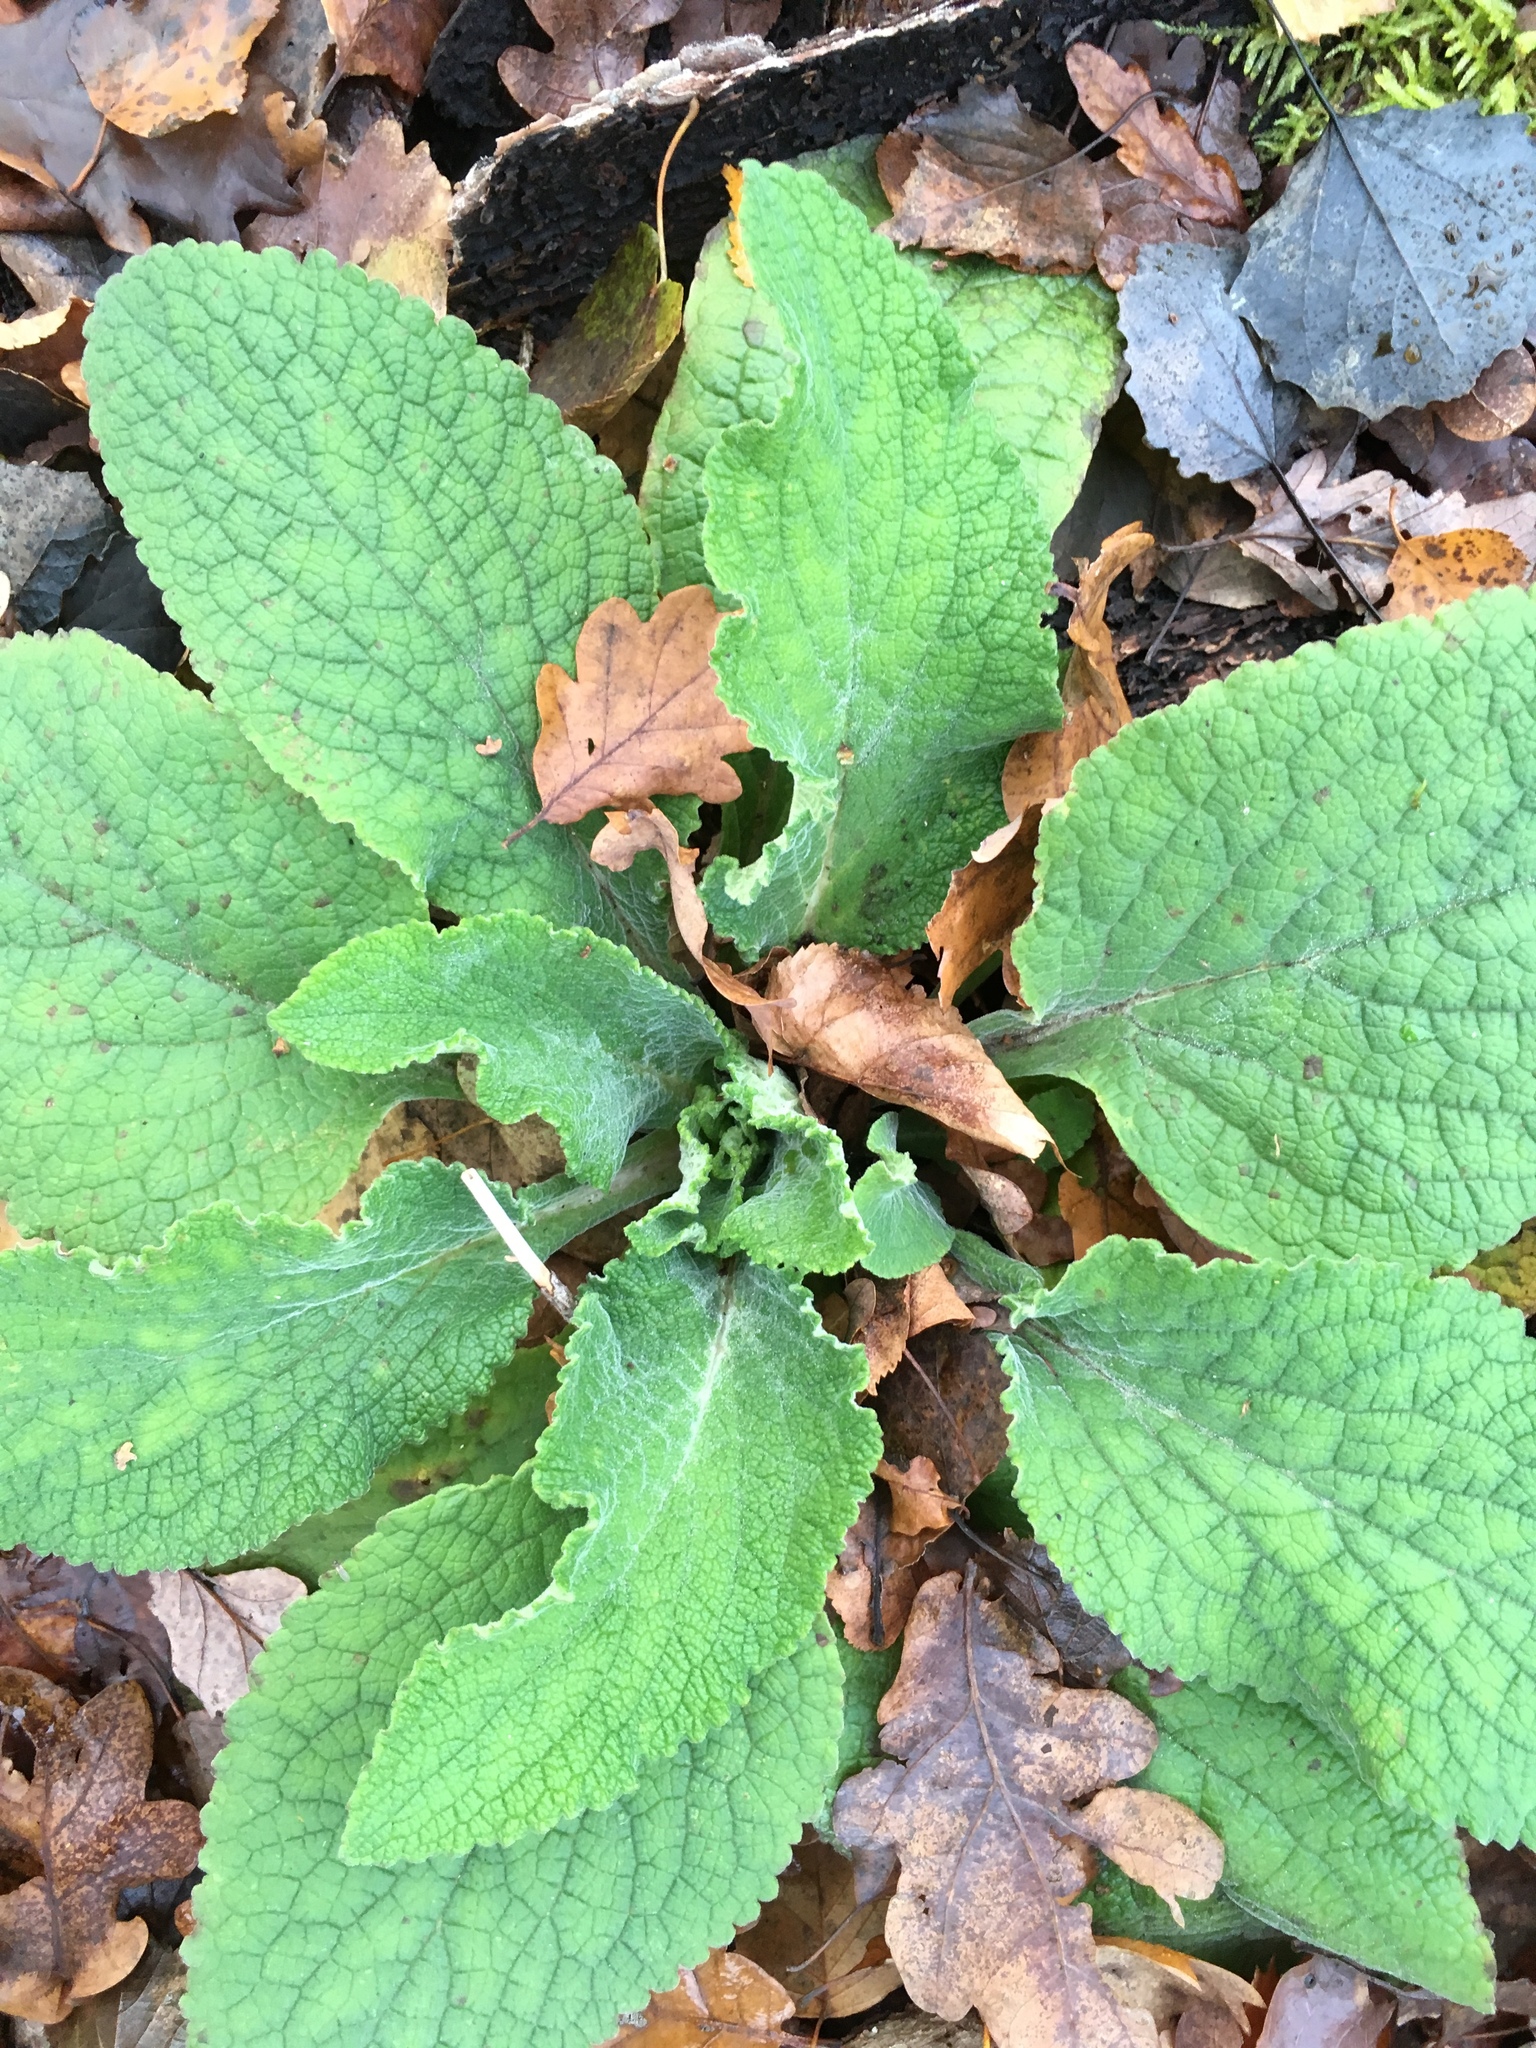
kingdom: Plantae
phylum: Tracheophyta
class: Magnoliopsida
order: Lamiales
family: Plantaginaceae
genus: Digitalis
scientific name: Digitalis purpurea
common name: Foxglove
